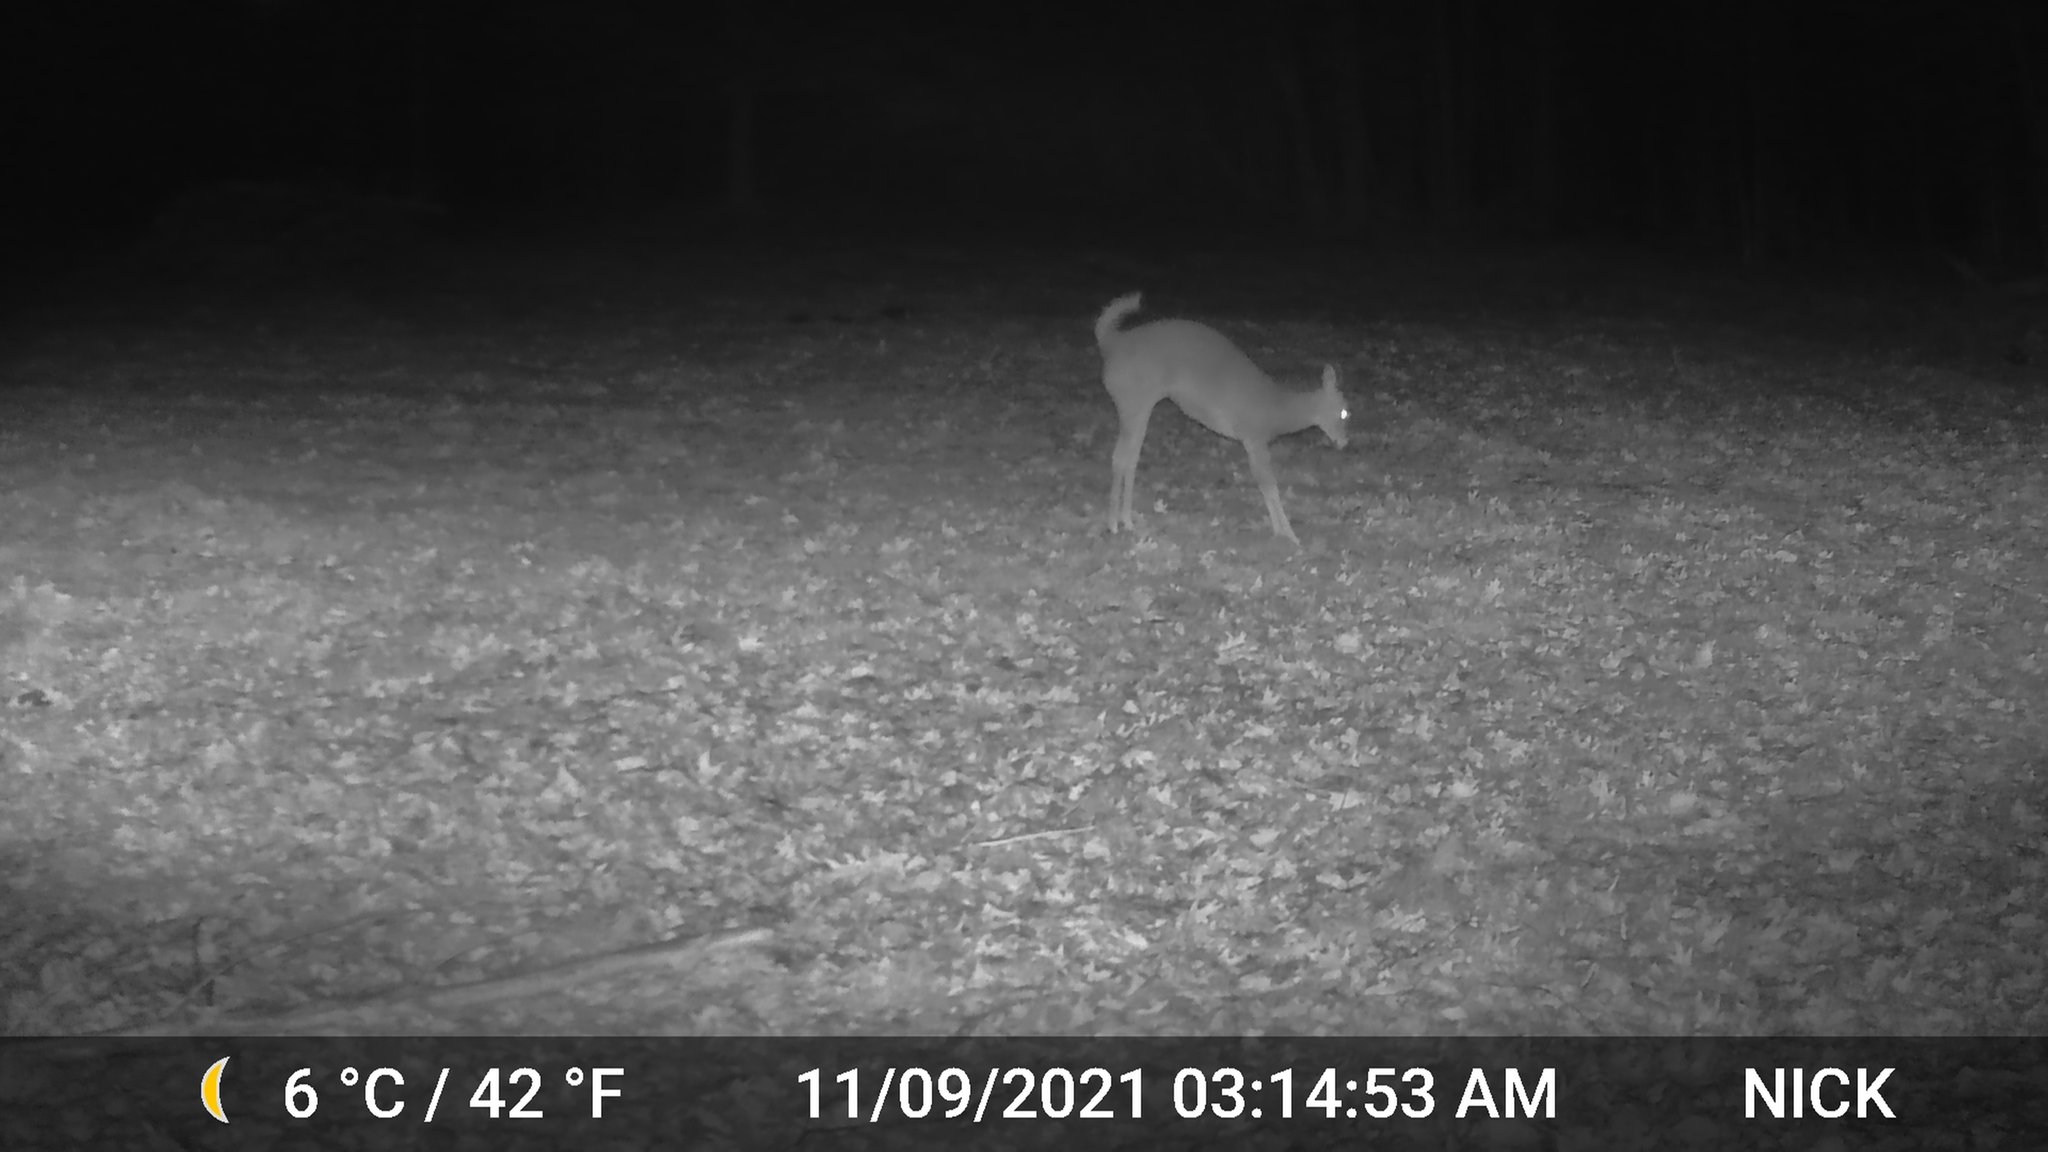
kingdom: Animalia
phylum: Chordata
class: Mammalia
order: Artiodactyla
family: Cervidae
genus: Odocoileus
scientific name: Odocoileus virginianus
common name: White-tailed deer
